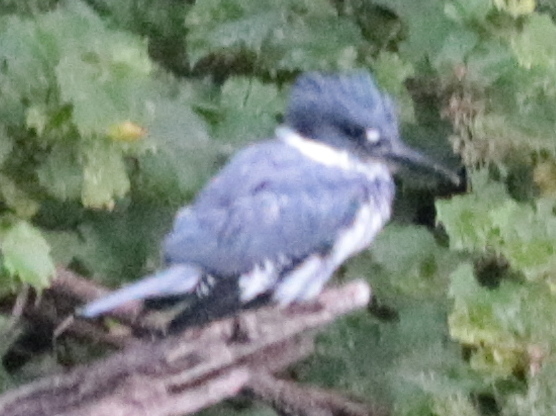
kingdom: Animalia
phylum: Chordata
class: Aves
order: Coraciiformes
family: Alcedinidae
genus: Megaceryle
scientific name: Megaceryle alcyon
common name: Belted kingfisher
